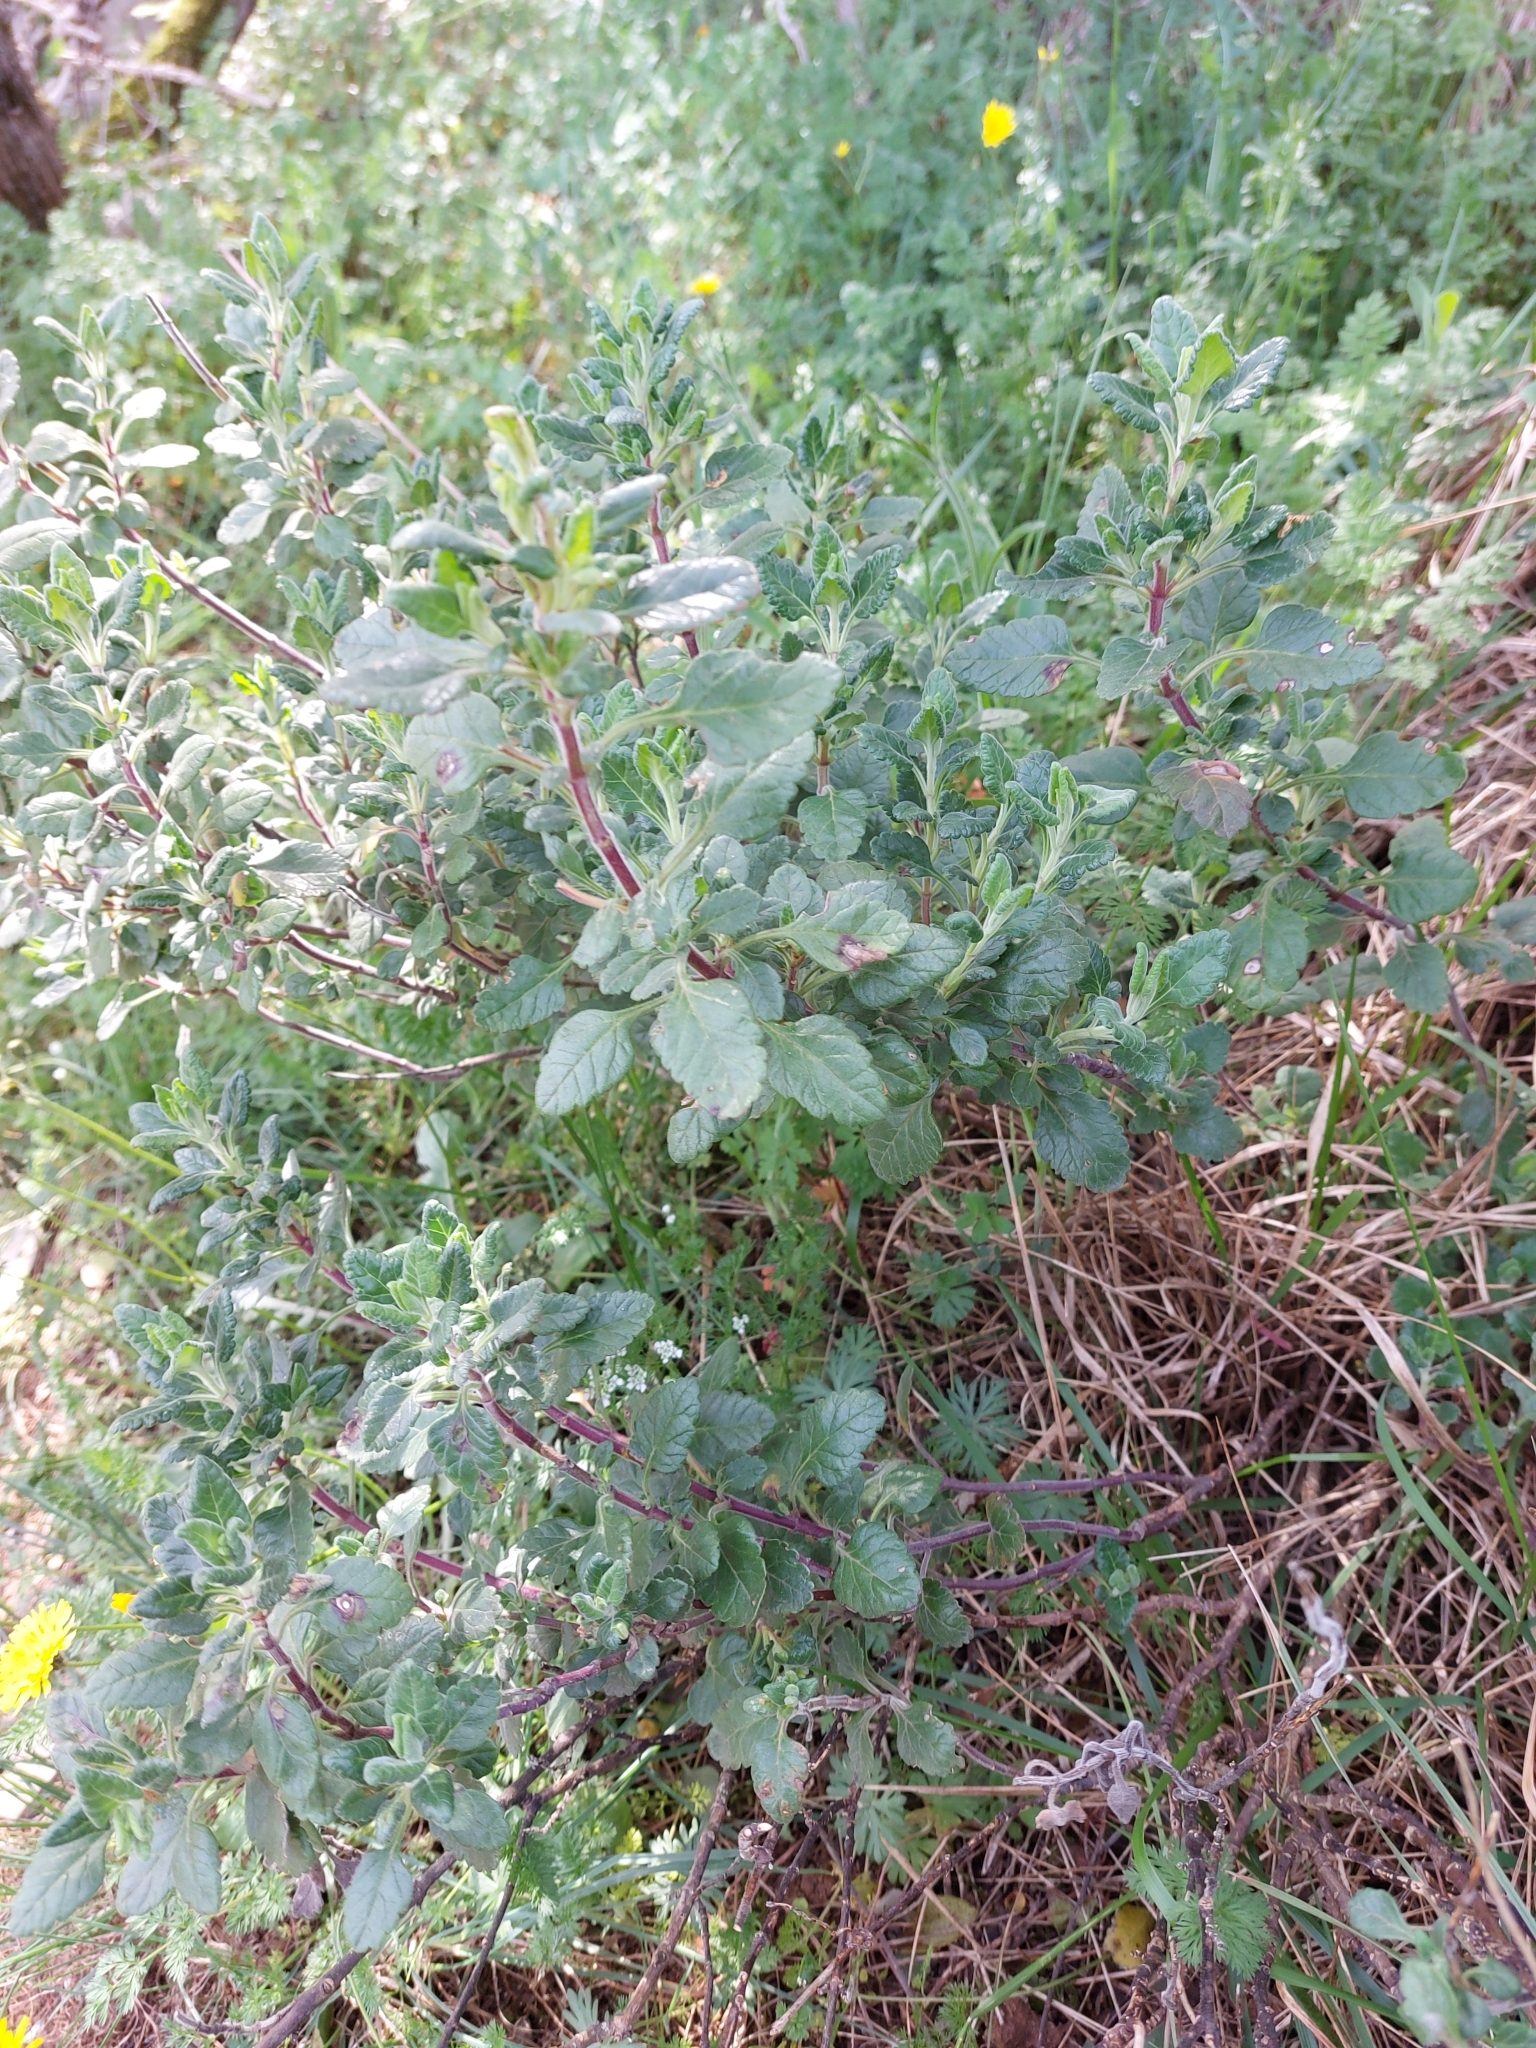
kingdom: Plantae
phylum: Tracheophyta
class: Magnoliopsida
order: Lamiales
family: Lamiaceae
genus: Teucrium
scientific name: Teucrium flavum
